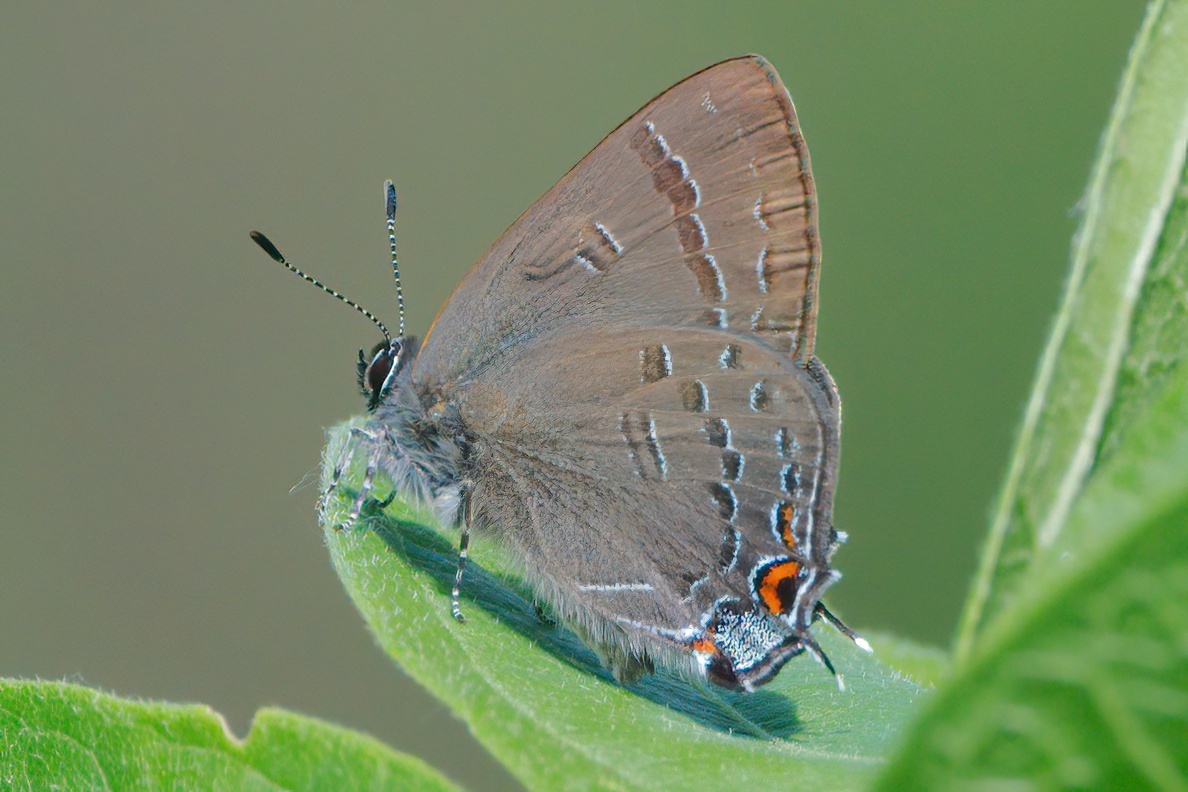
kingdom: Animalia
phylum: Arthropoda
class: Insecta
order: Lepidoptera
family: Lycaenidae
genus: Satyrium
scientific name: Satyrium calanus
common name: Banded hairstreak
